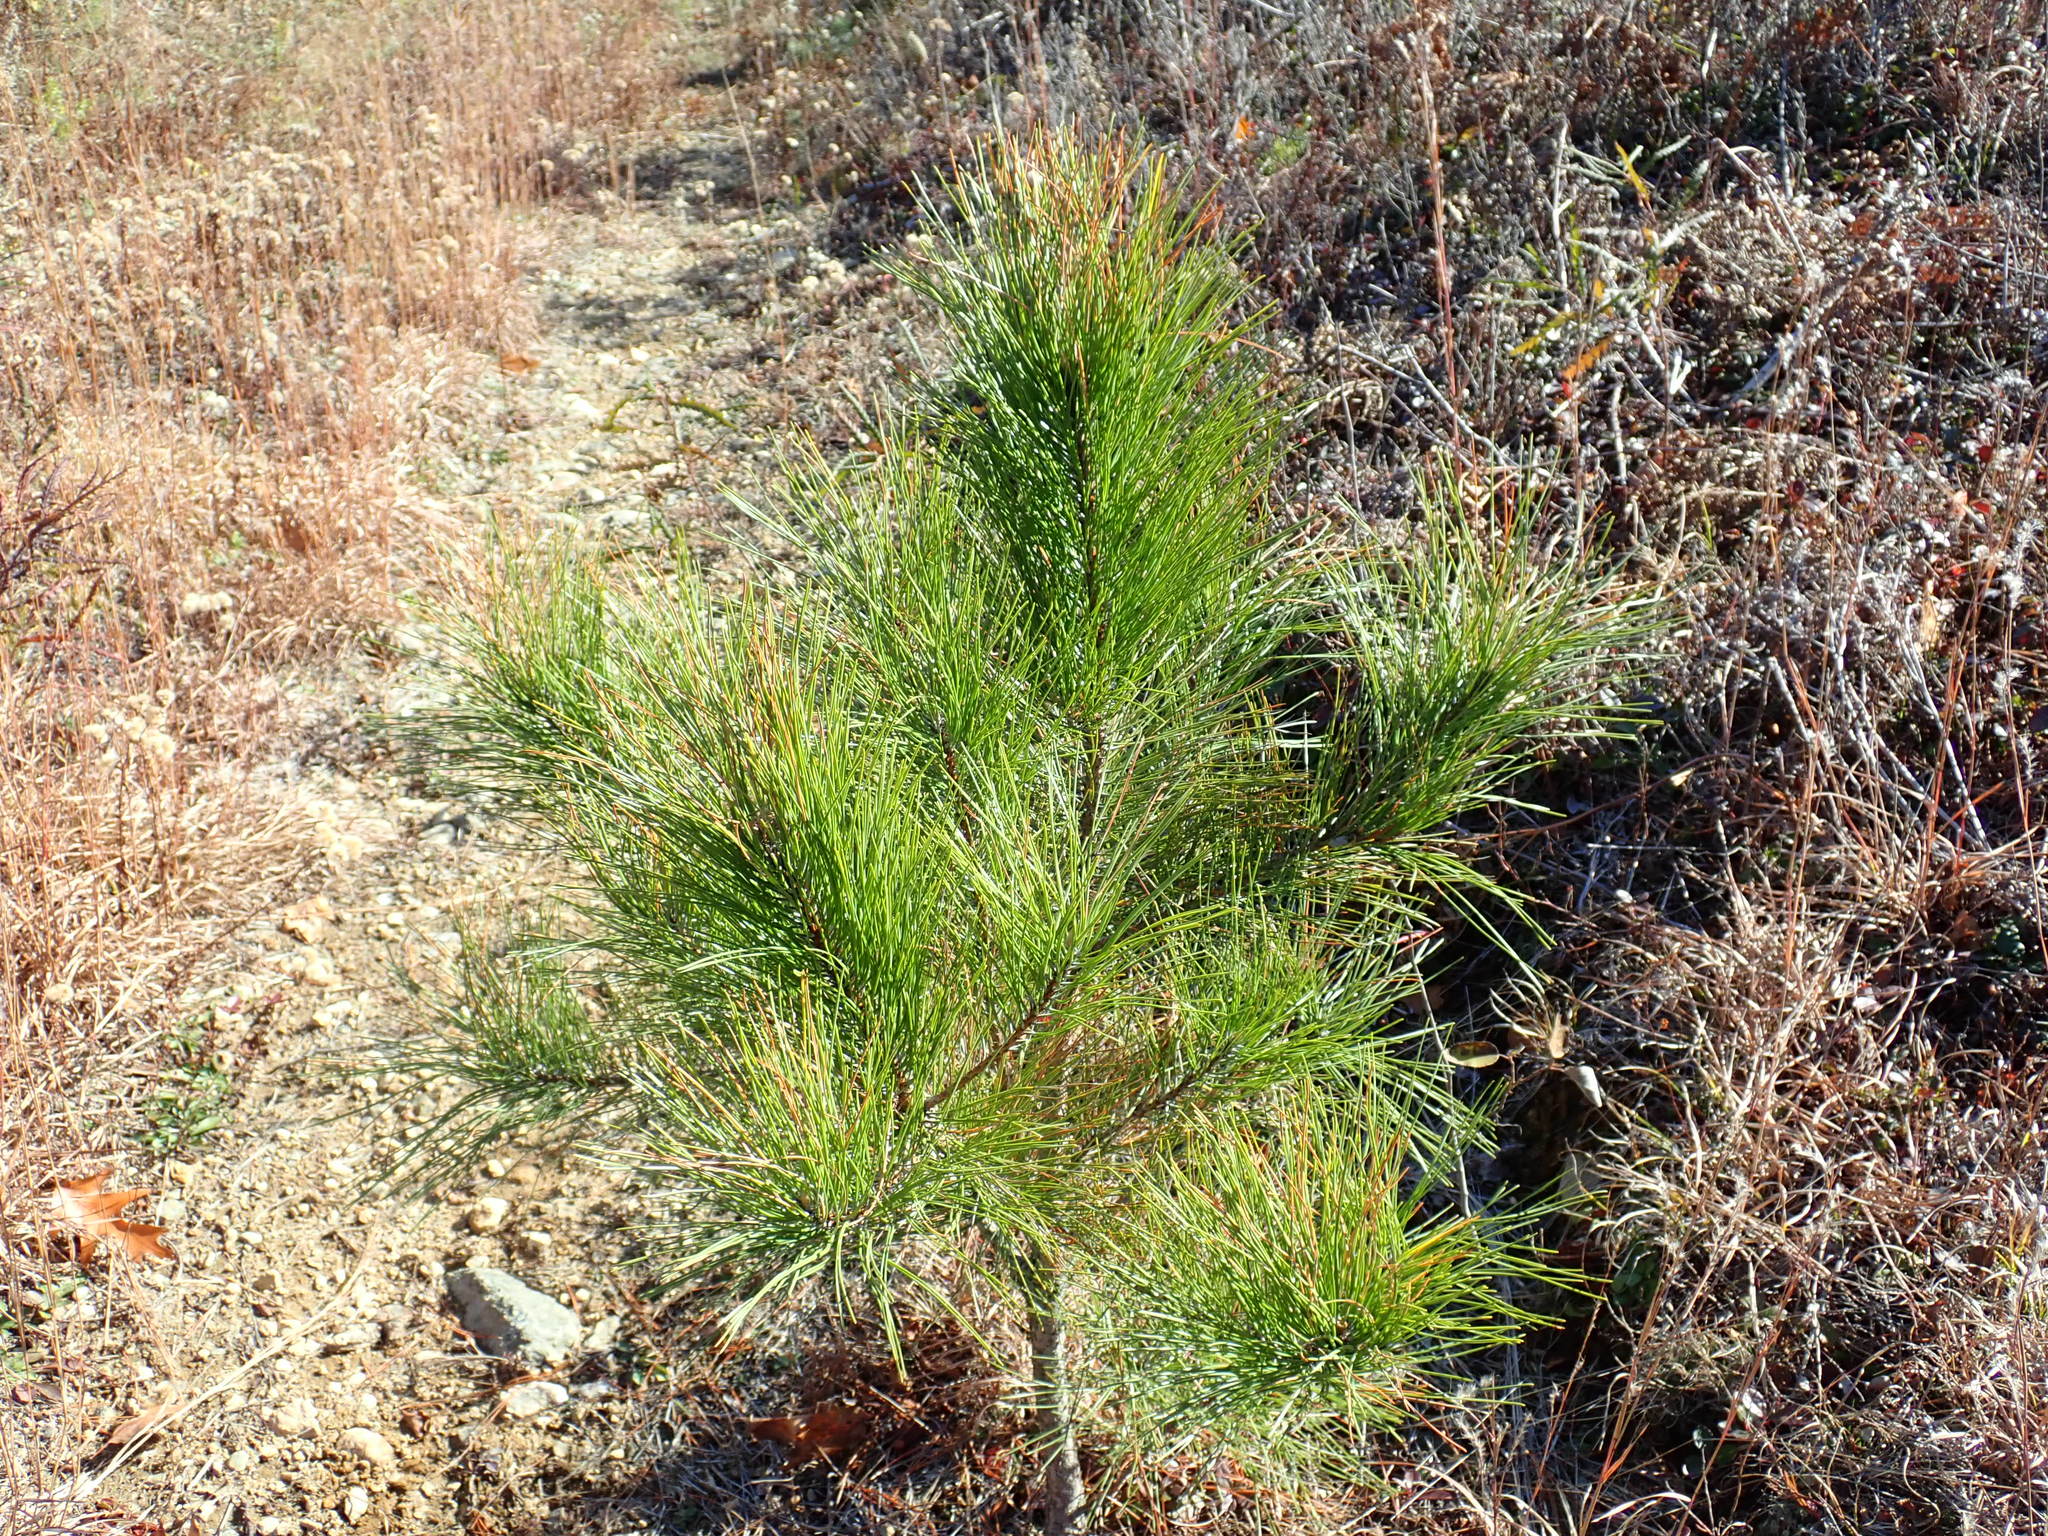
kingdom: Plantae
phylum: Tracheophyta
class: Pinopsida
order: Pinales
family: Pinaceae
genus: Pinus
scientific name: Pinus resinosa
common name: Norway pine
